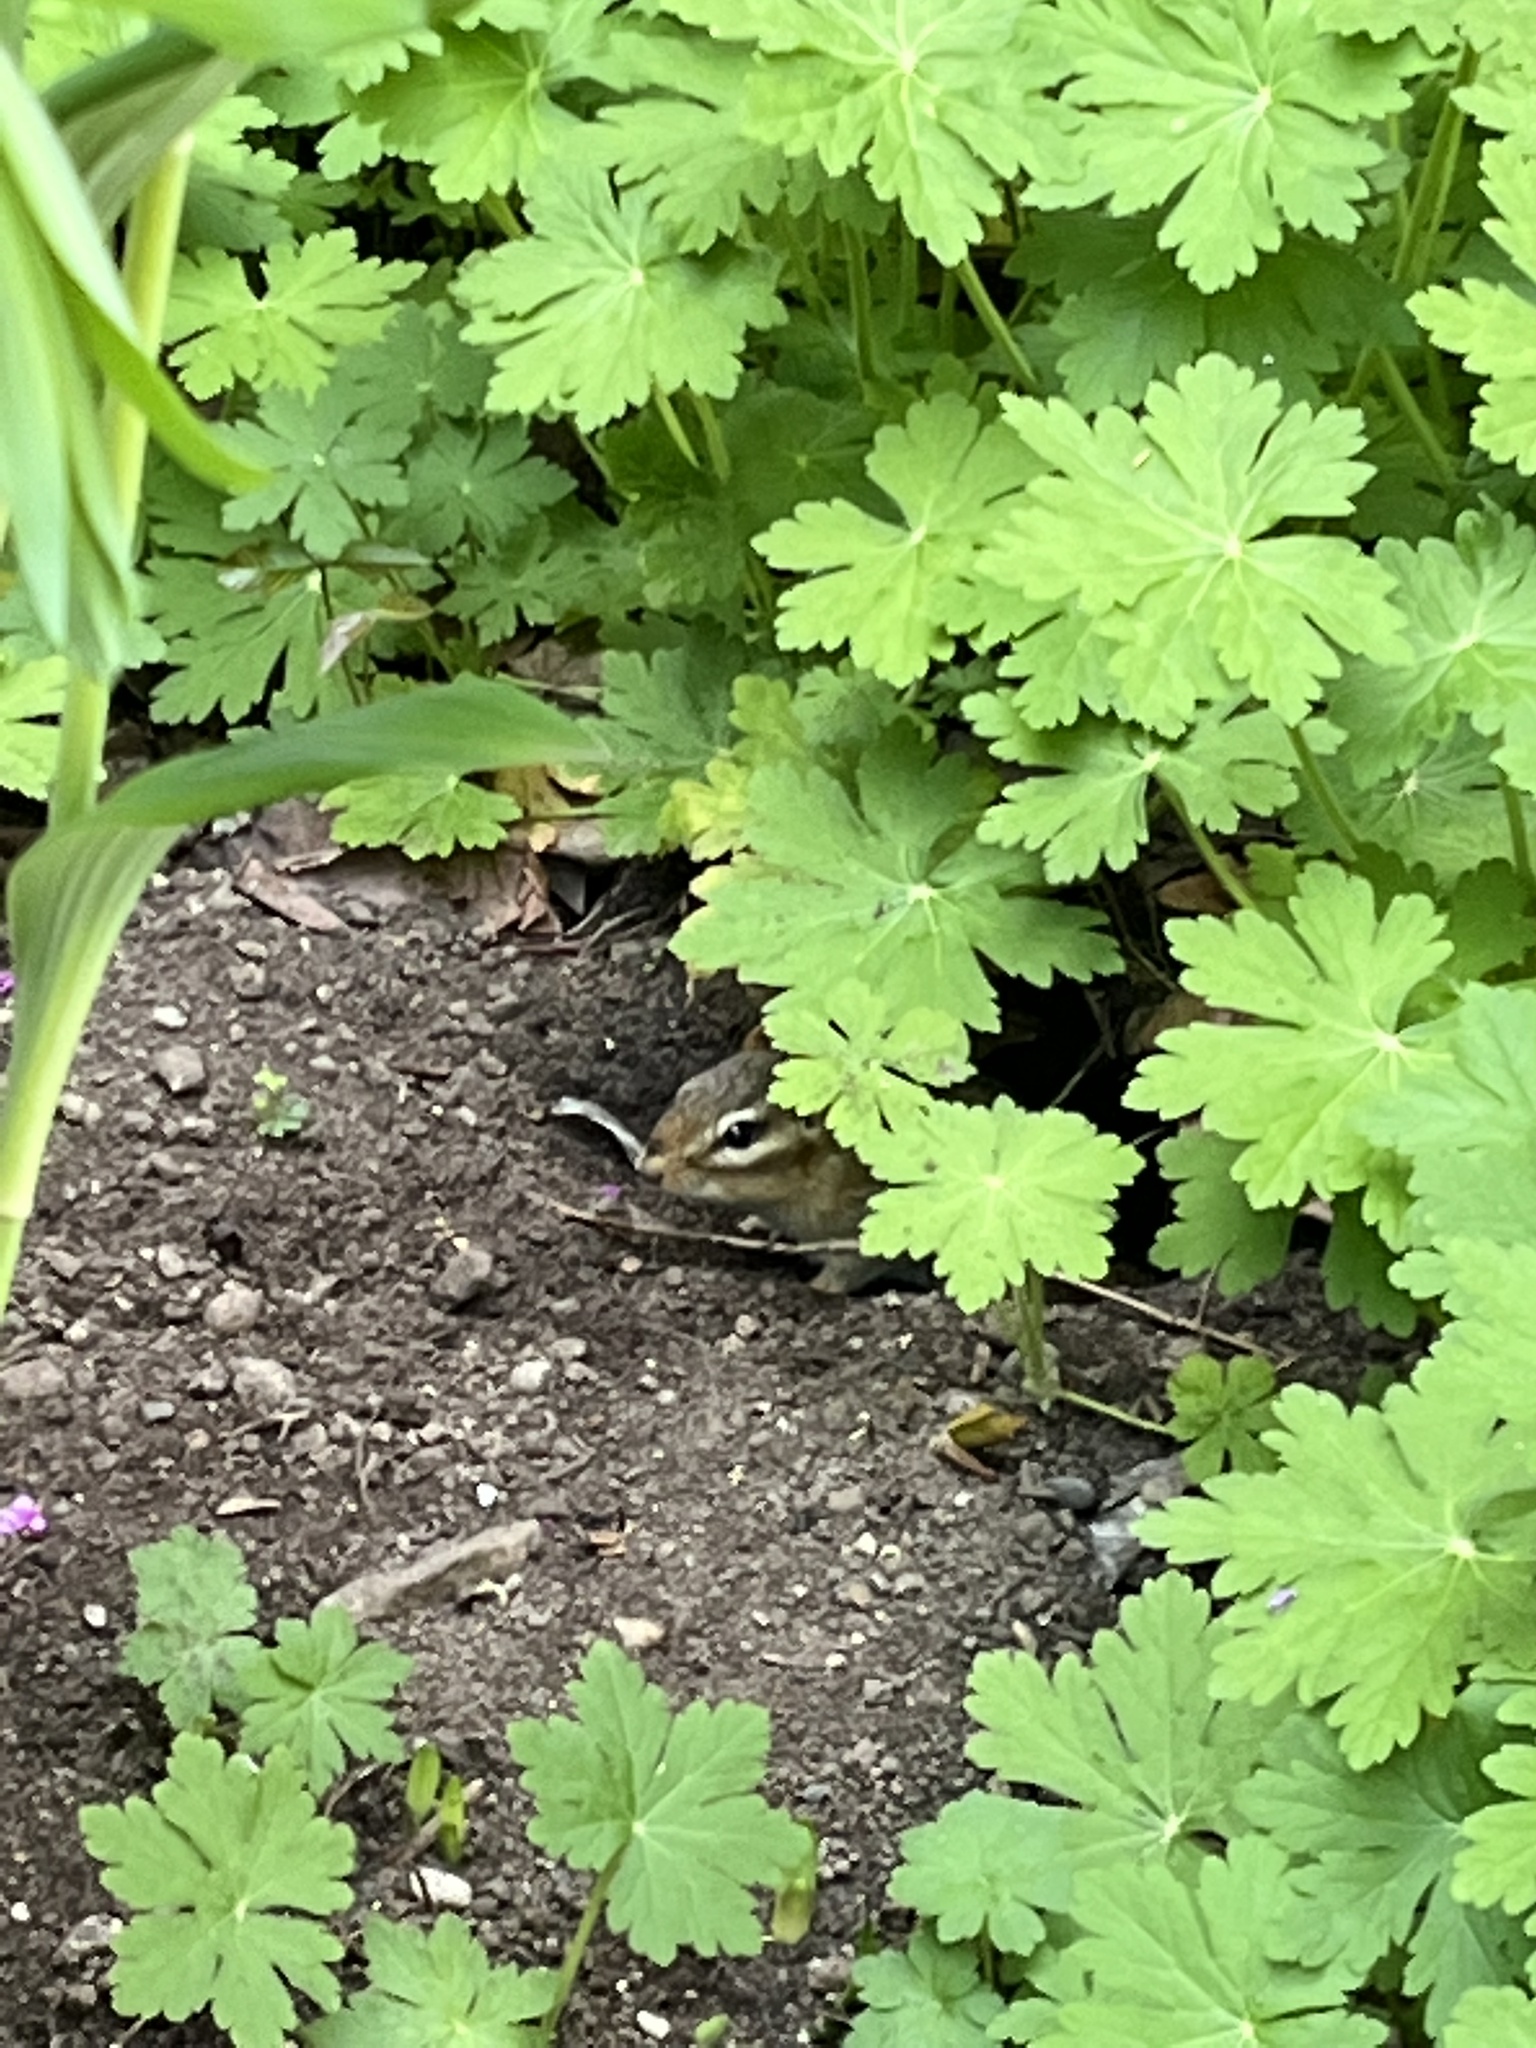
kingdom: Animalia
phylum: Chordata
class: Mammalia
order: Rodentia
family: Sciuridae
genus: Tamias
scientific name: Tamias striatus
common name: Eastern chipmunk
